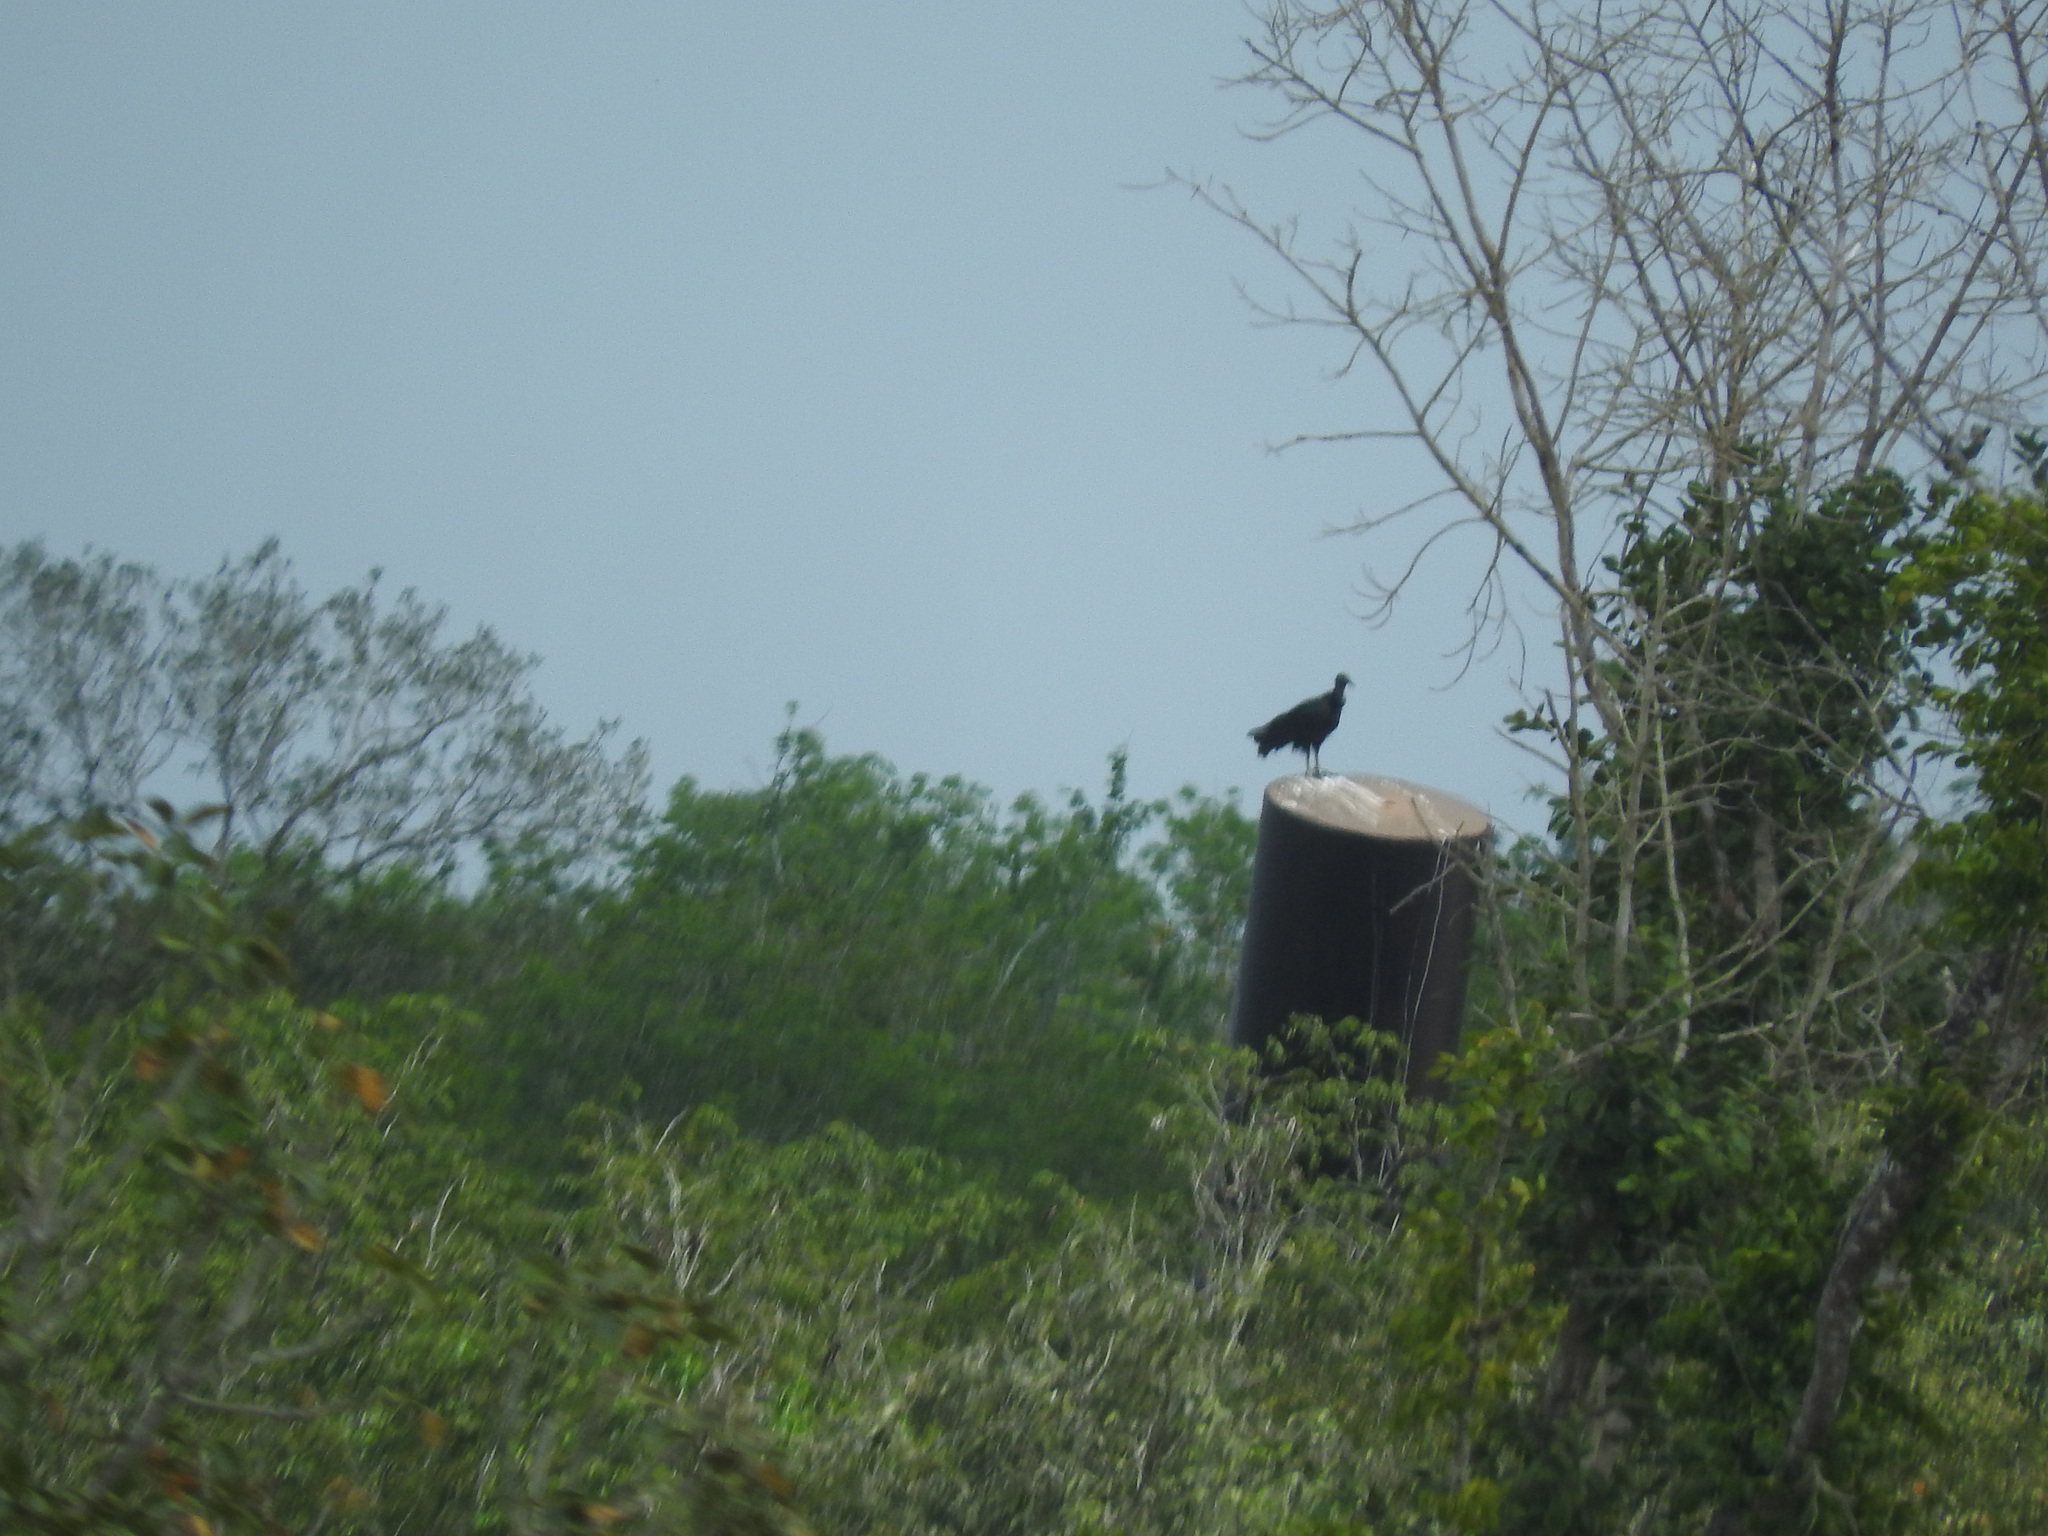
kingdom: Animalia
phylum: Chordata
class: Aves
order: Accipitriformes
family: Cathartidae
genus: Coragyps
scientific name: Coragyps atratus
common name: Black vulture
